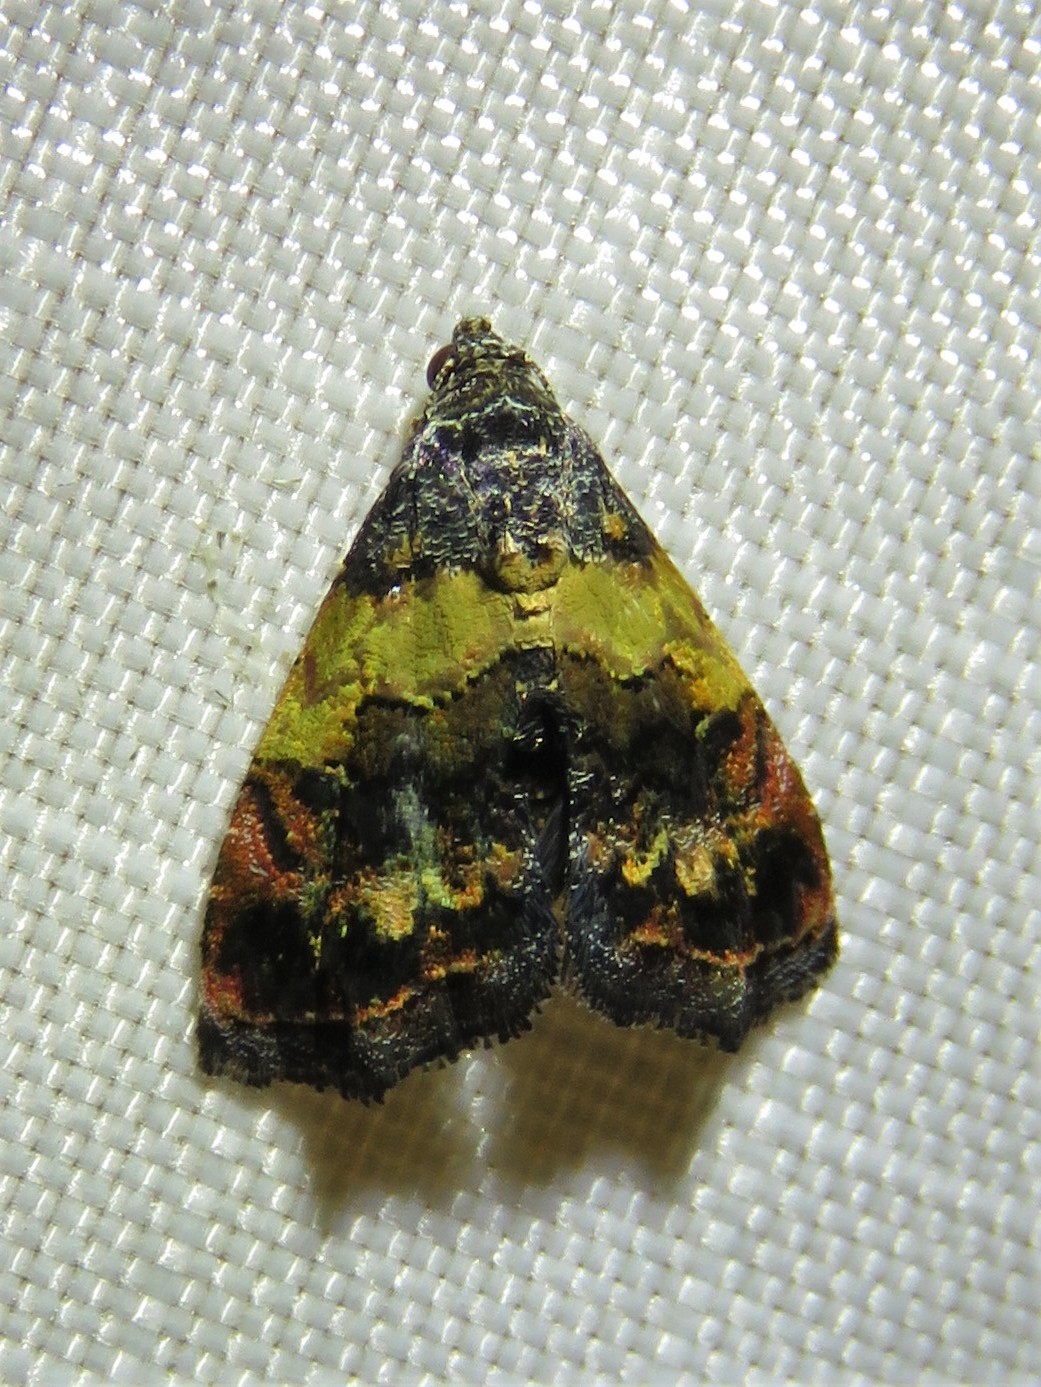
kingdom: Animalia
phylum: Arthropoda
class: Insecta
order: Lepidoptera
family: Noctuidae
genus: Tripudia
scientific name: Tripudia flavofasciata
